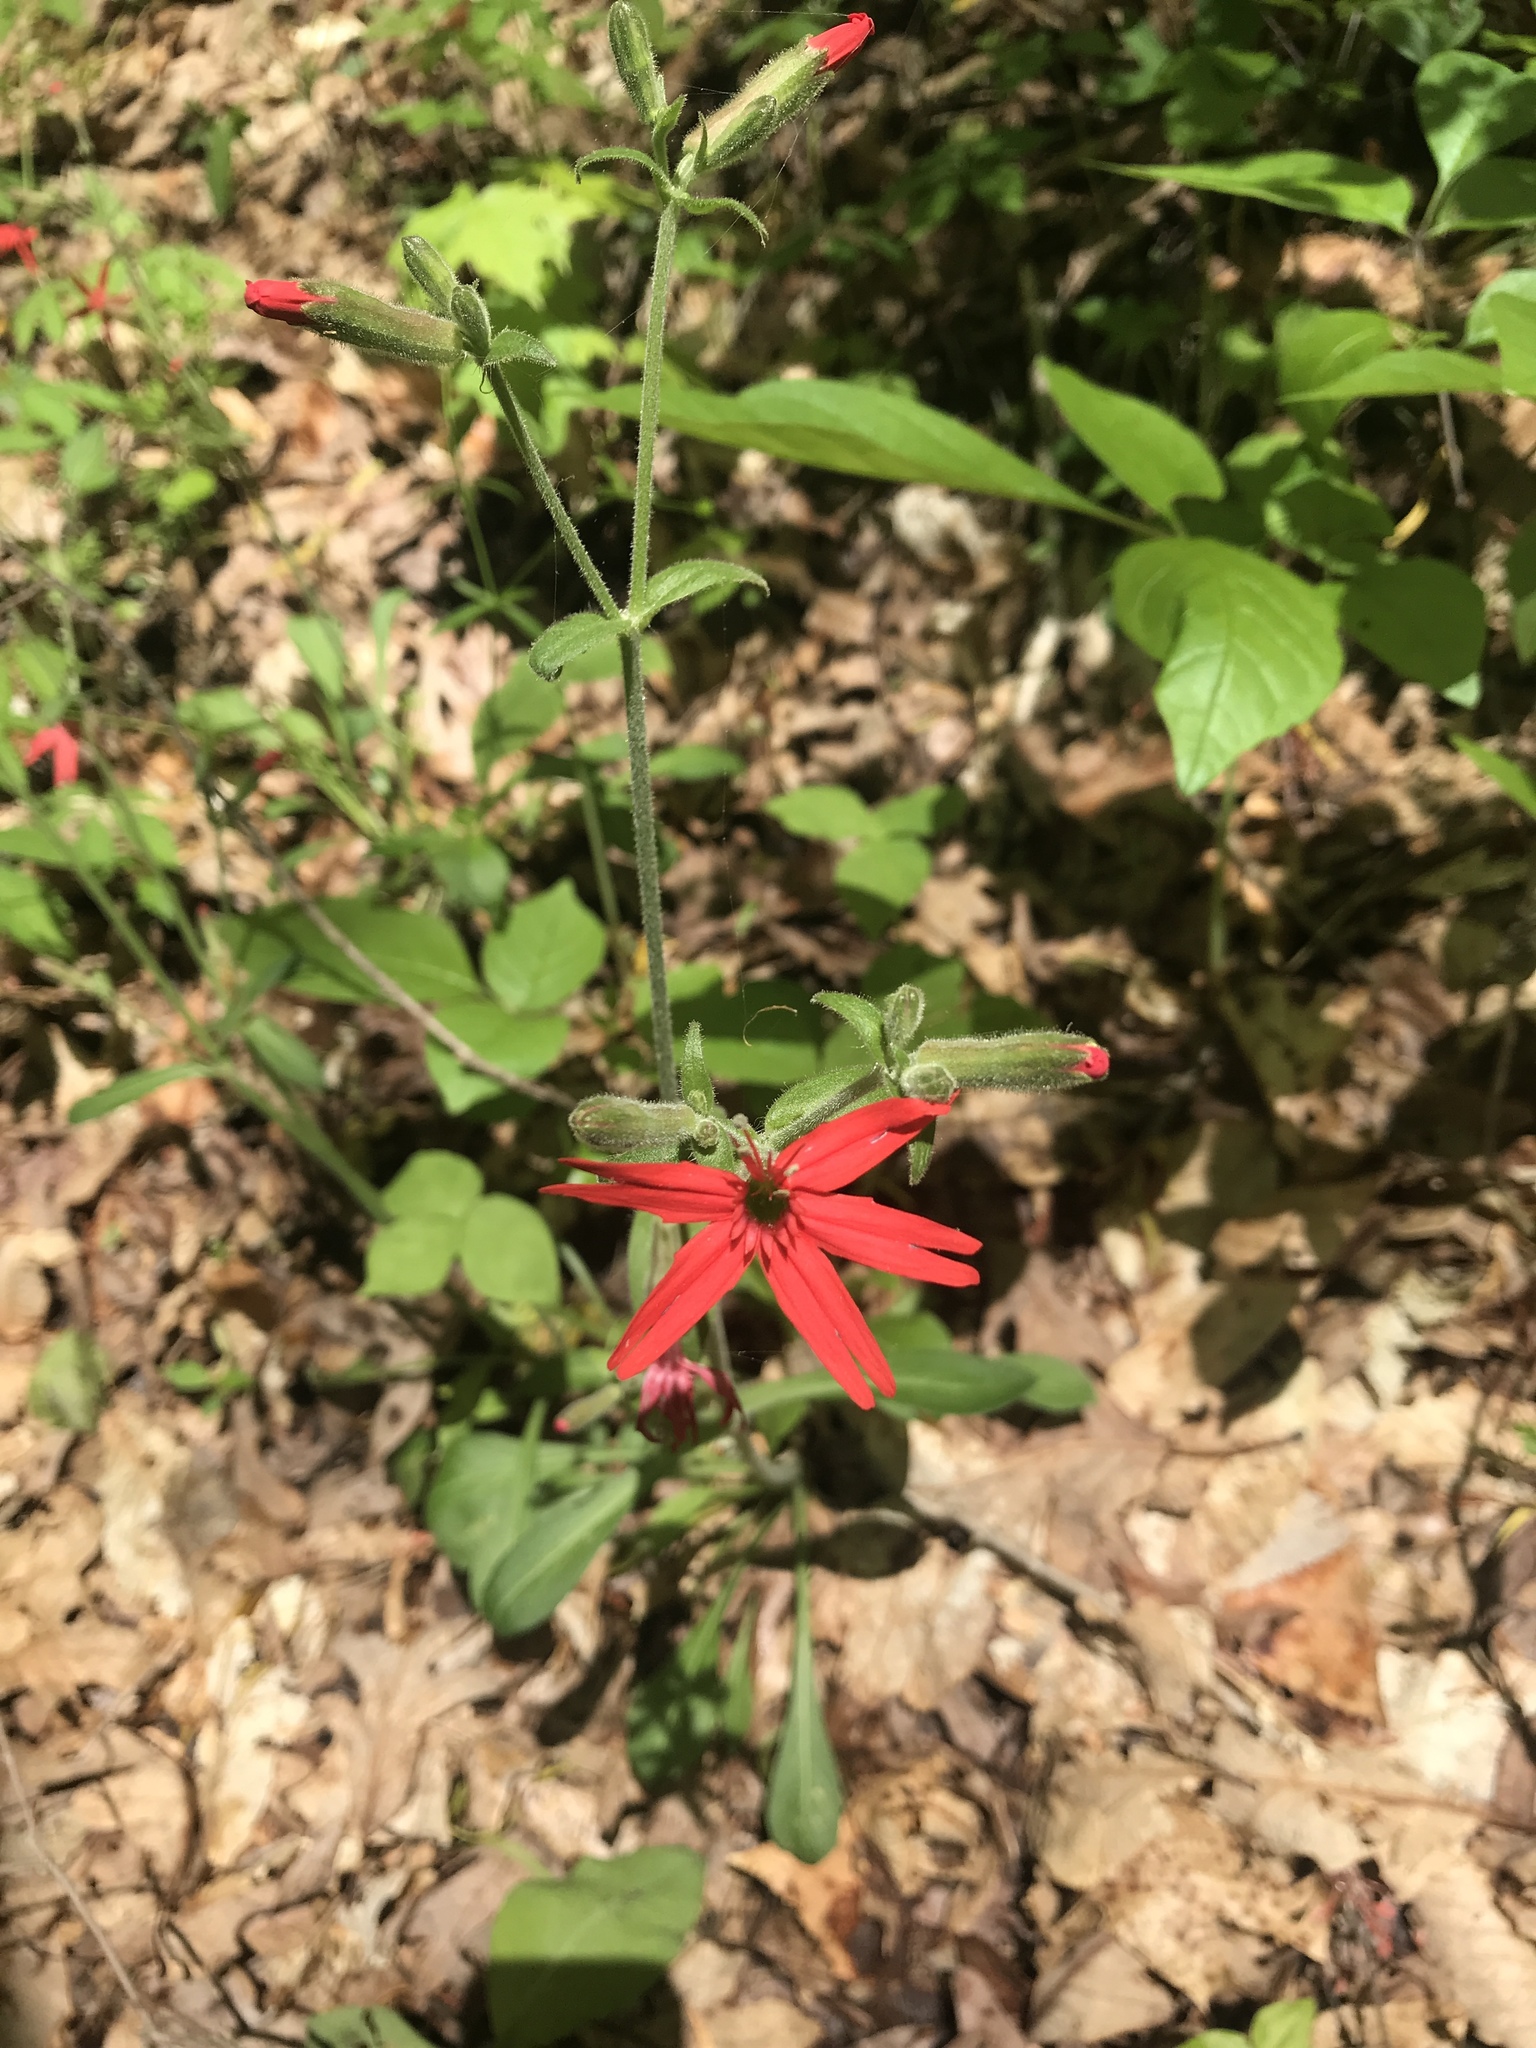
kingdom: Plantae
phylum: Tracheophyta
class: Magnoliopsida
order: Caryophyllales
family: Caryophyllaceae
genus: Silene
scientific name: Silene virginica
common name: Fire-pink
